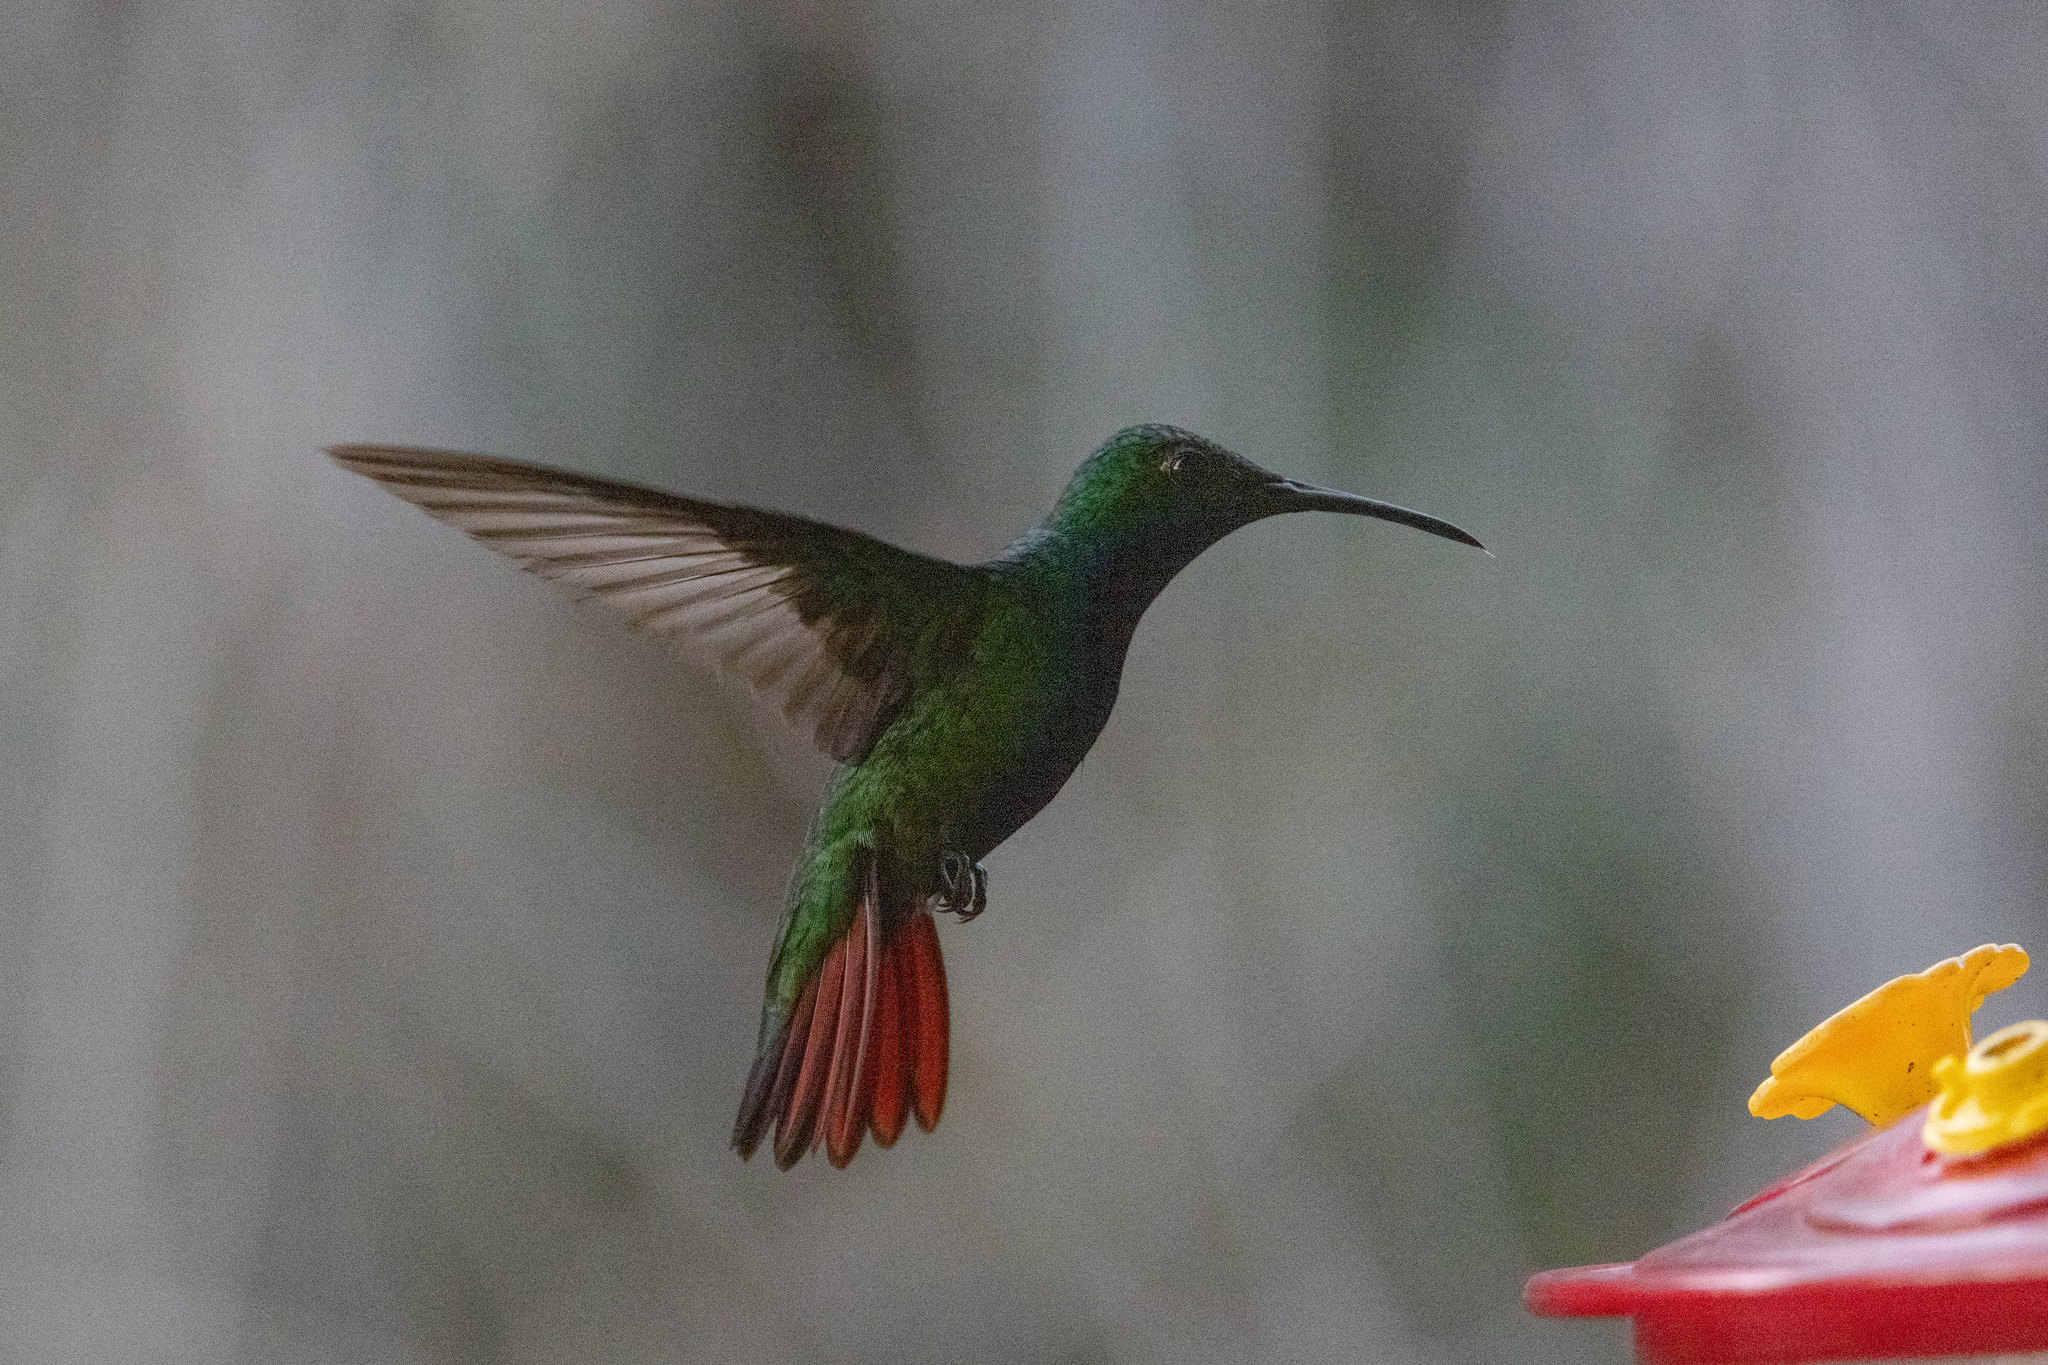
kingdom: Animalia
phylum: Chordata
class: Aves
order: Apodiformes
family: Trochilidae
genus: Amazilia
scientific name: Amazilia tzacatl
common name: Rufous-tailed hummingbird
